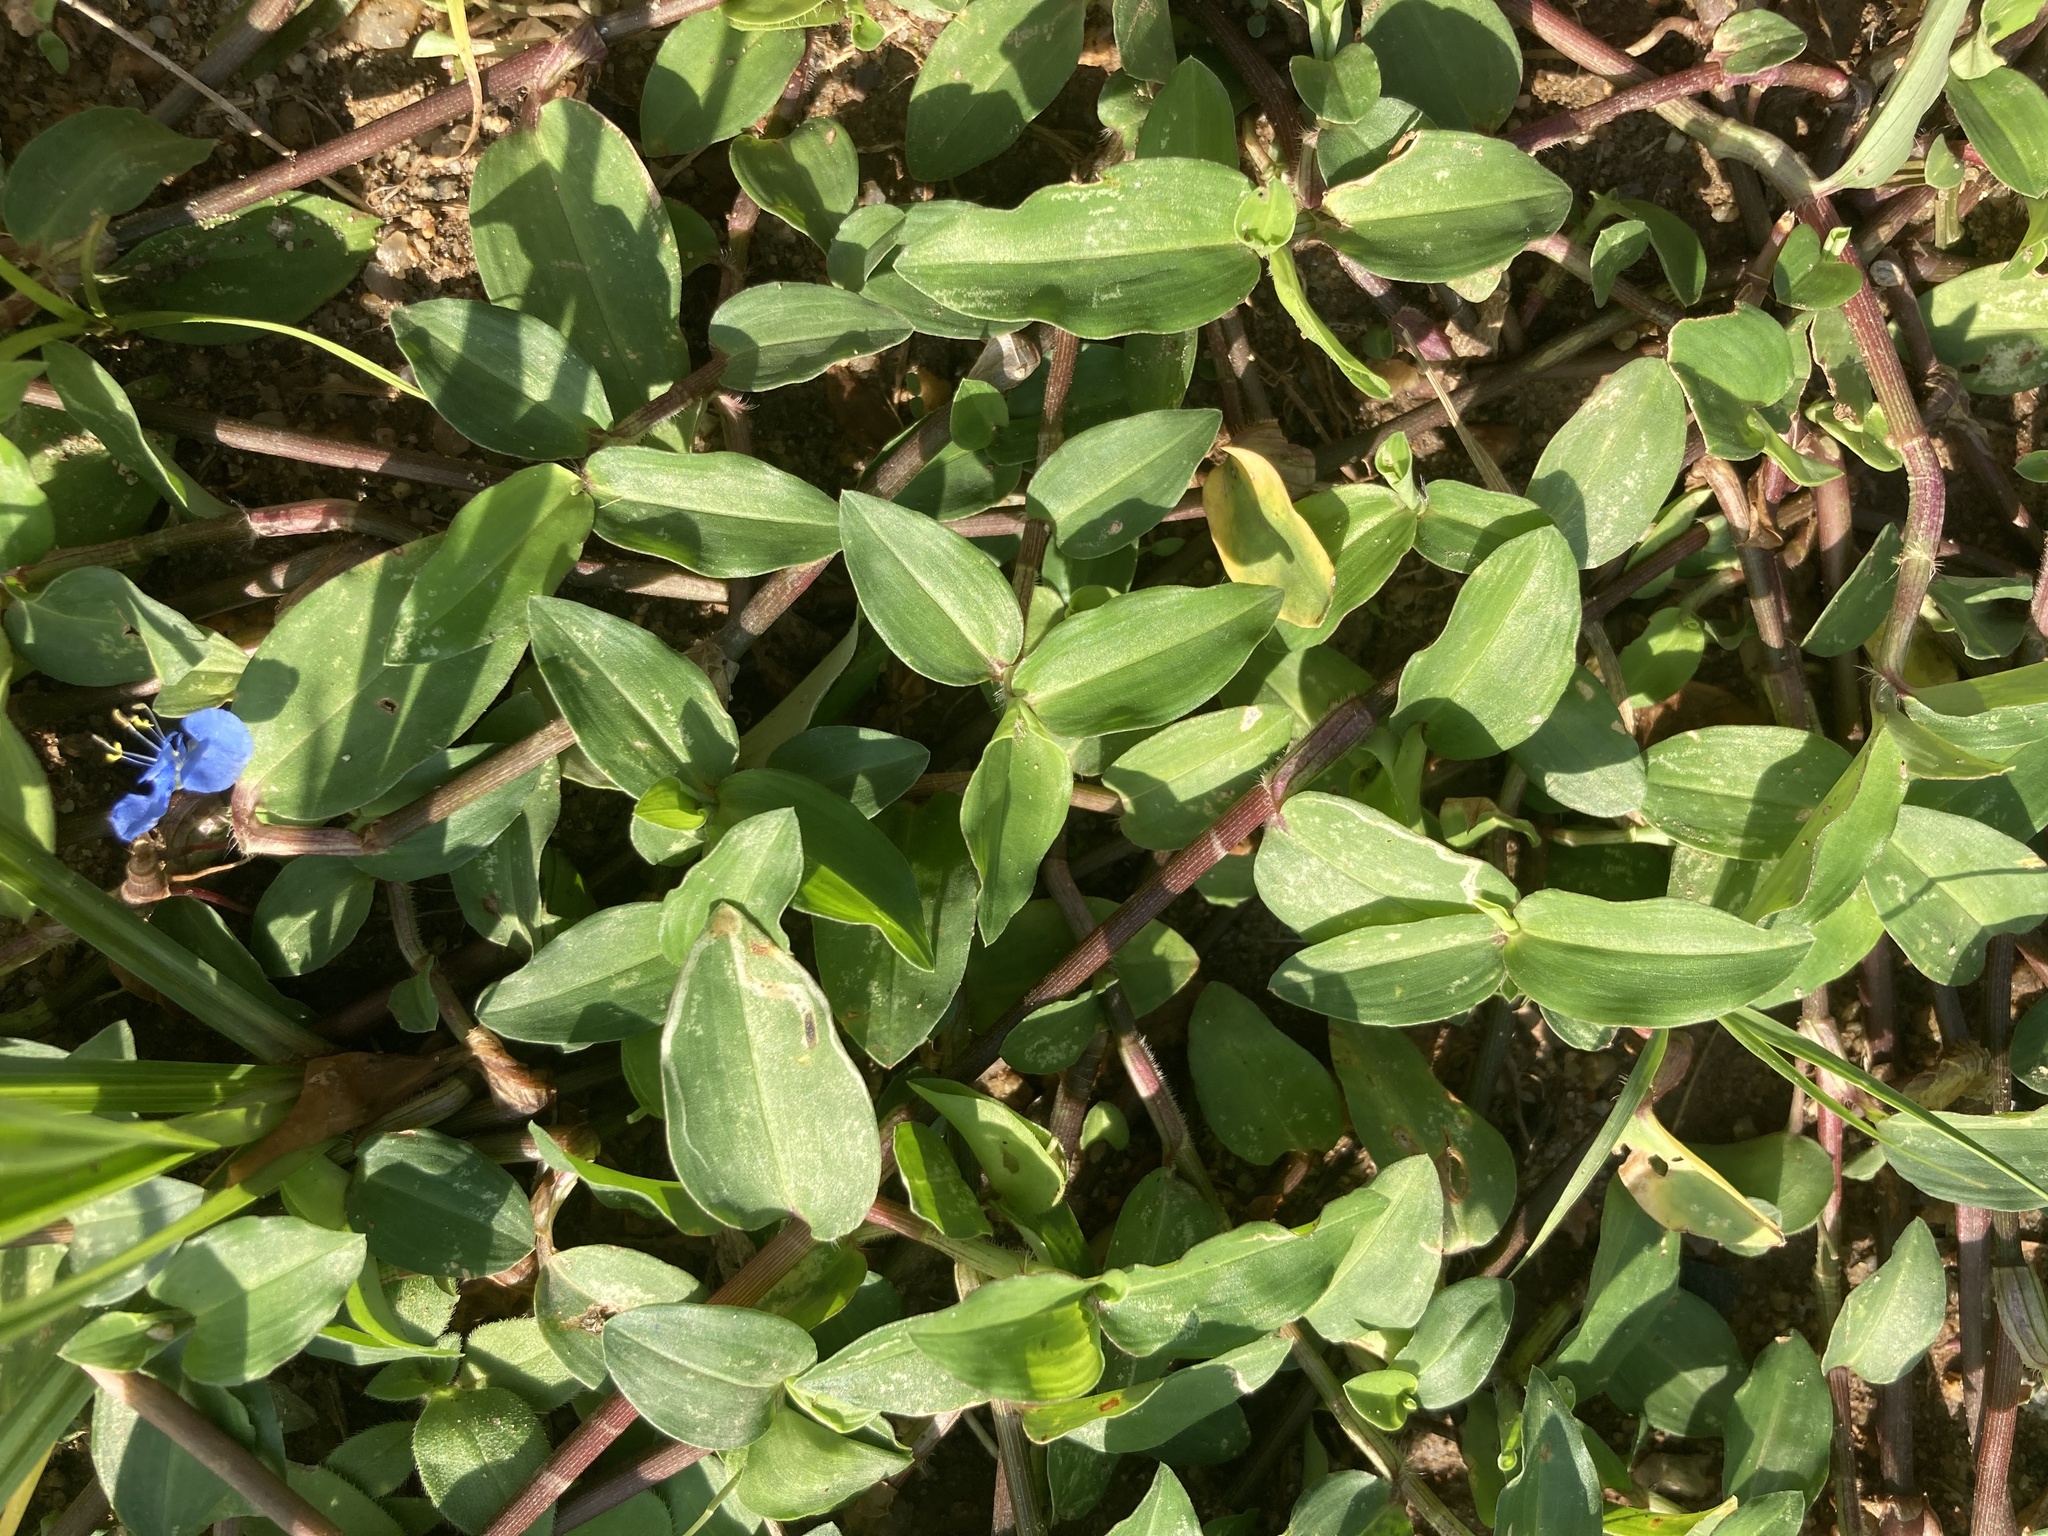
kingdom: Plantae
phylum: Tracheophyta
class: Liliopsida
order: Commelinales
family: Commelinaceae
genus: Commelina
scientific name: Commelina diffusa
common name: Climbing dayflower
